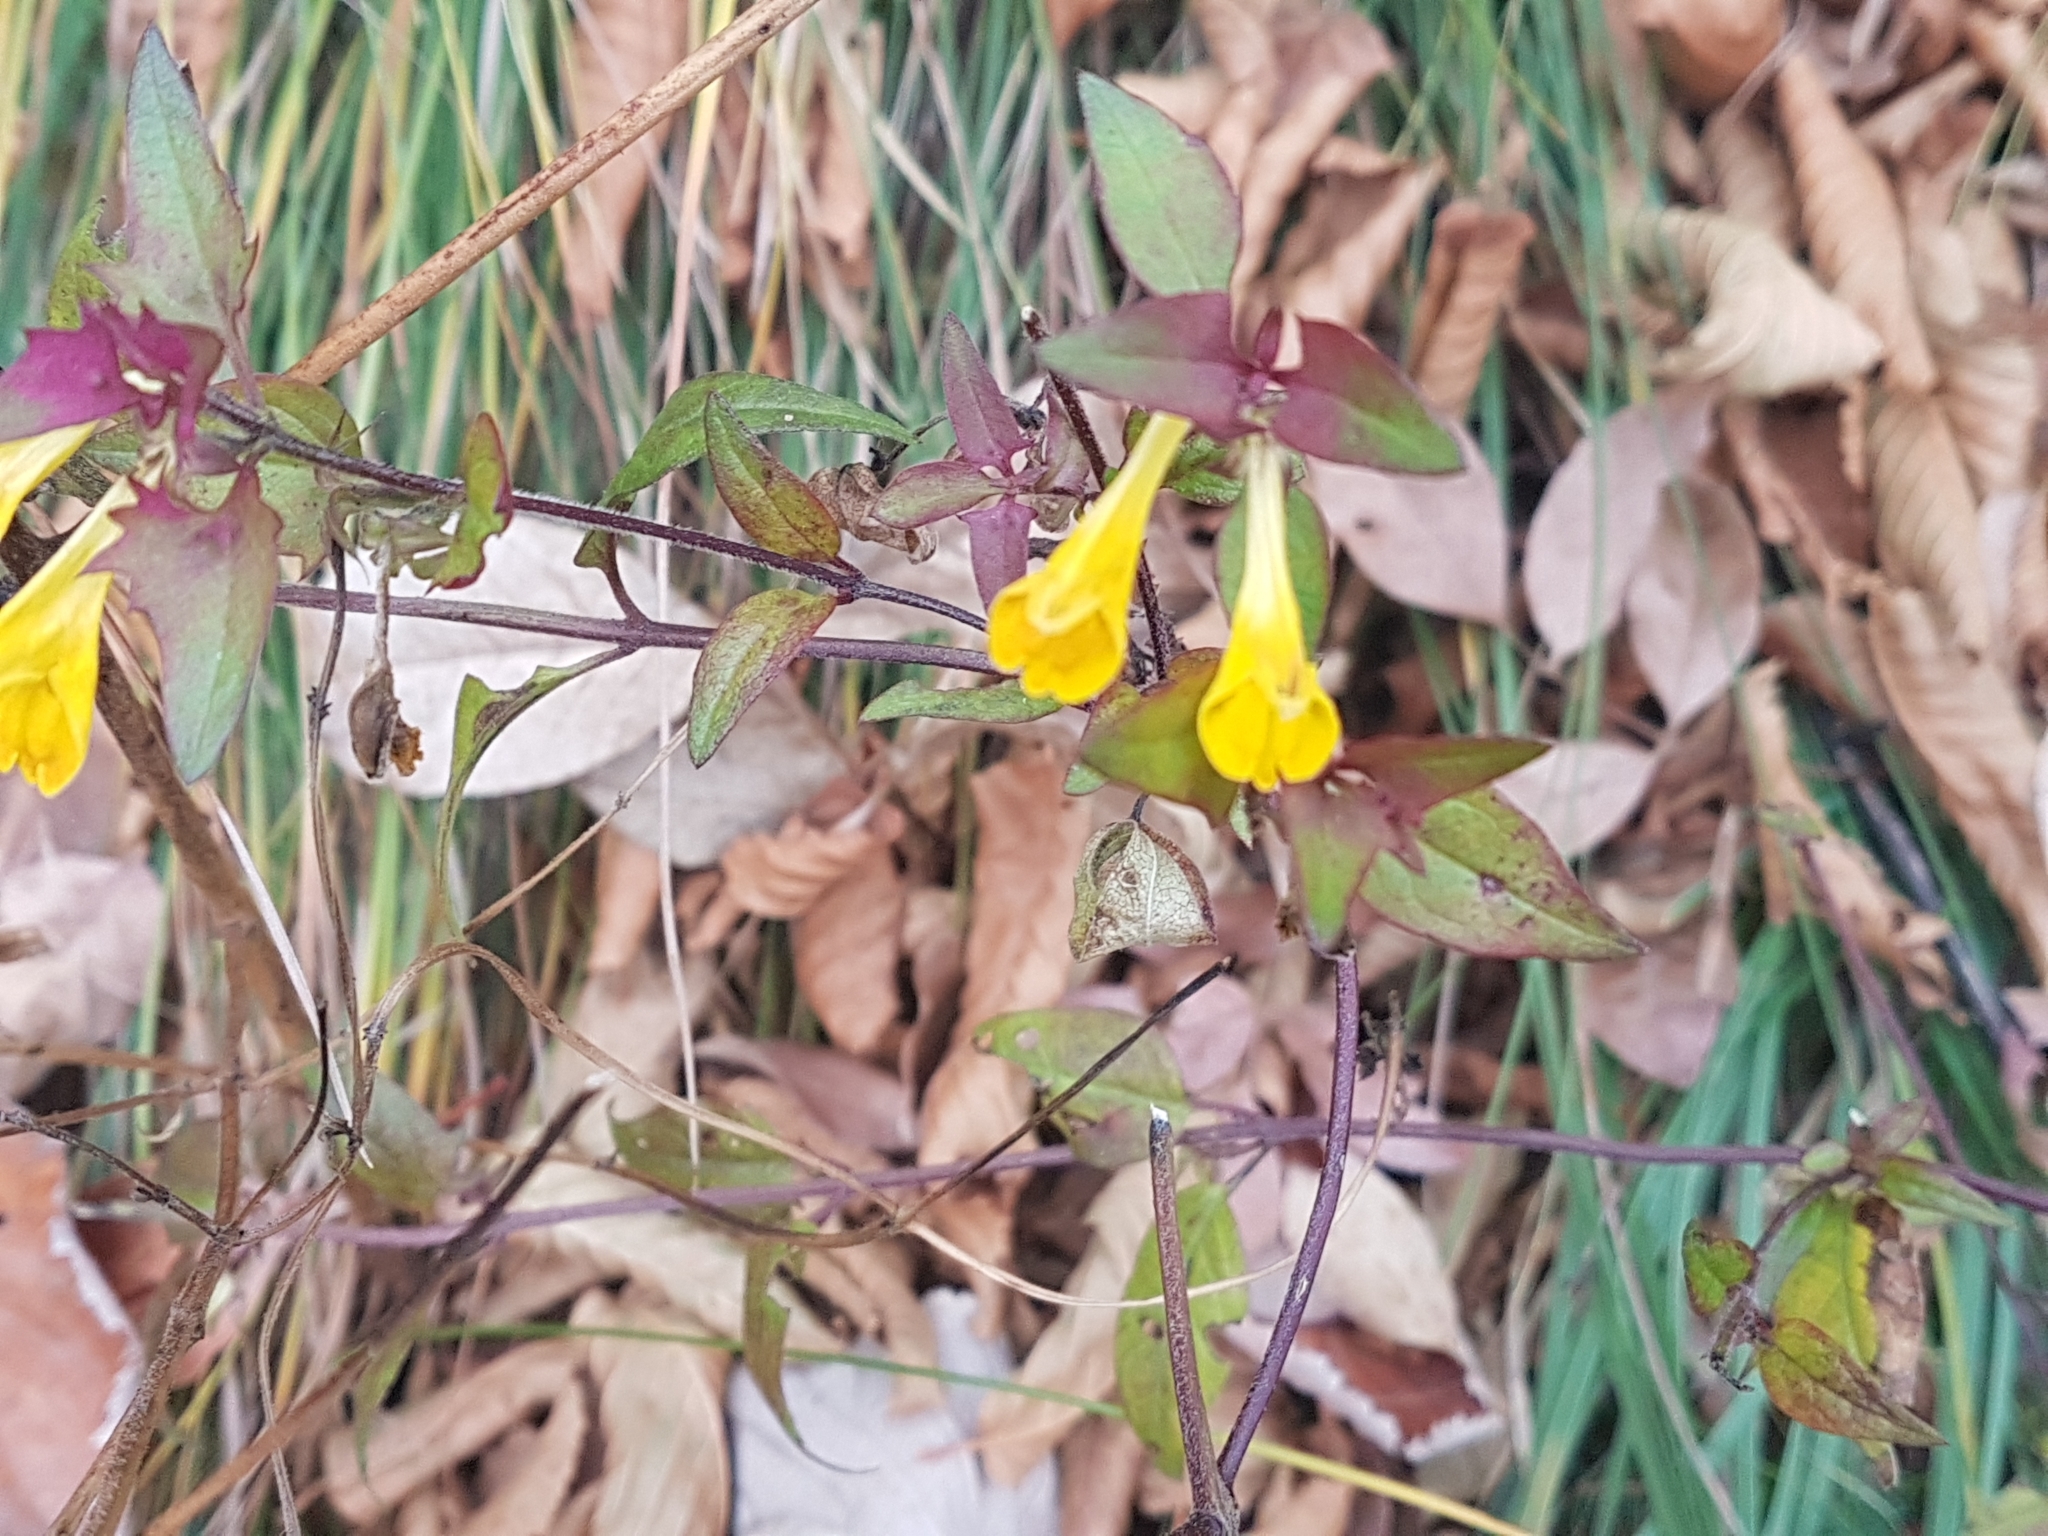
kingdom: Plantae
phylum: Tracheophyta
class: Magnoliopsida
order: Lamiales
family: Orobanchaceae
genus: Melampyrum
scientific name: Melampyrum velebiticum
